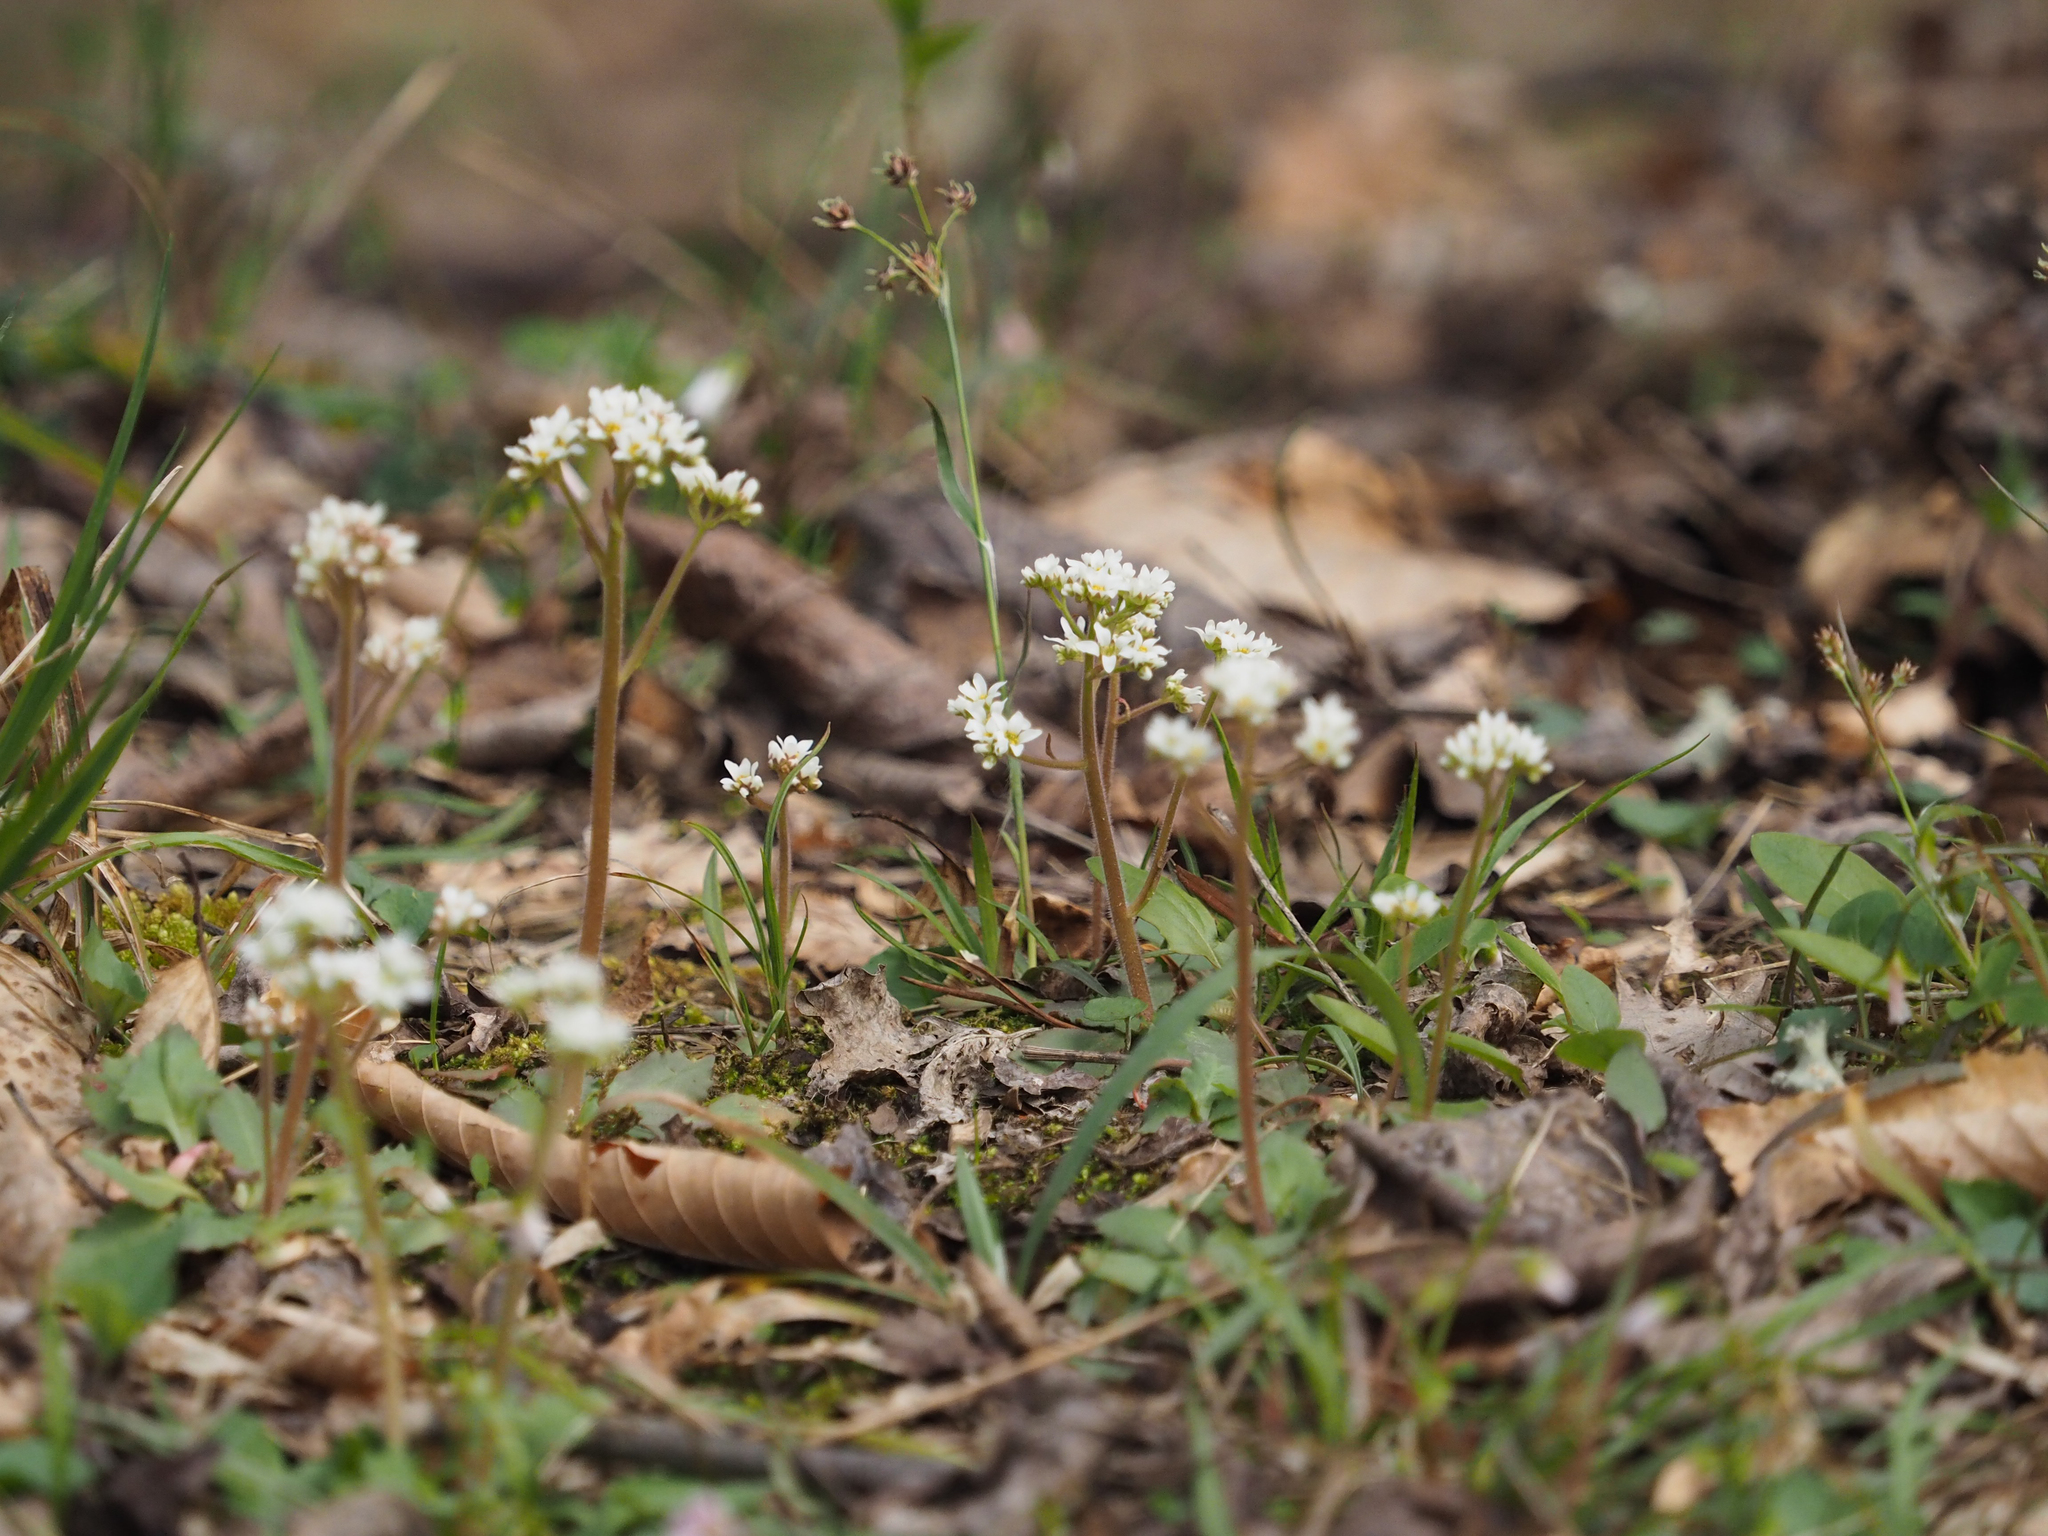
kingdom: Plantae
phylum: Tracheophyta
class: Magnoliopsida
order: Saxifragales
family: Saxifragaceae
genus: Micranthes
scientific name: Micranthes virginiensis
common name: Early saxifrage
